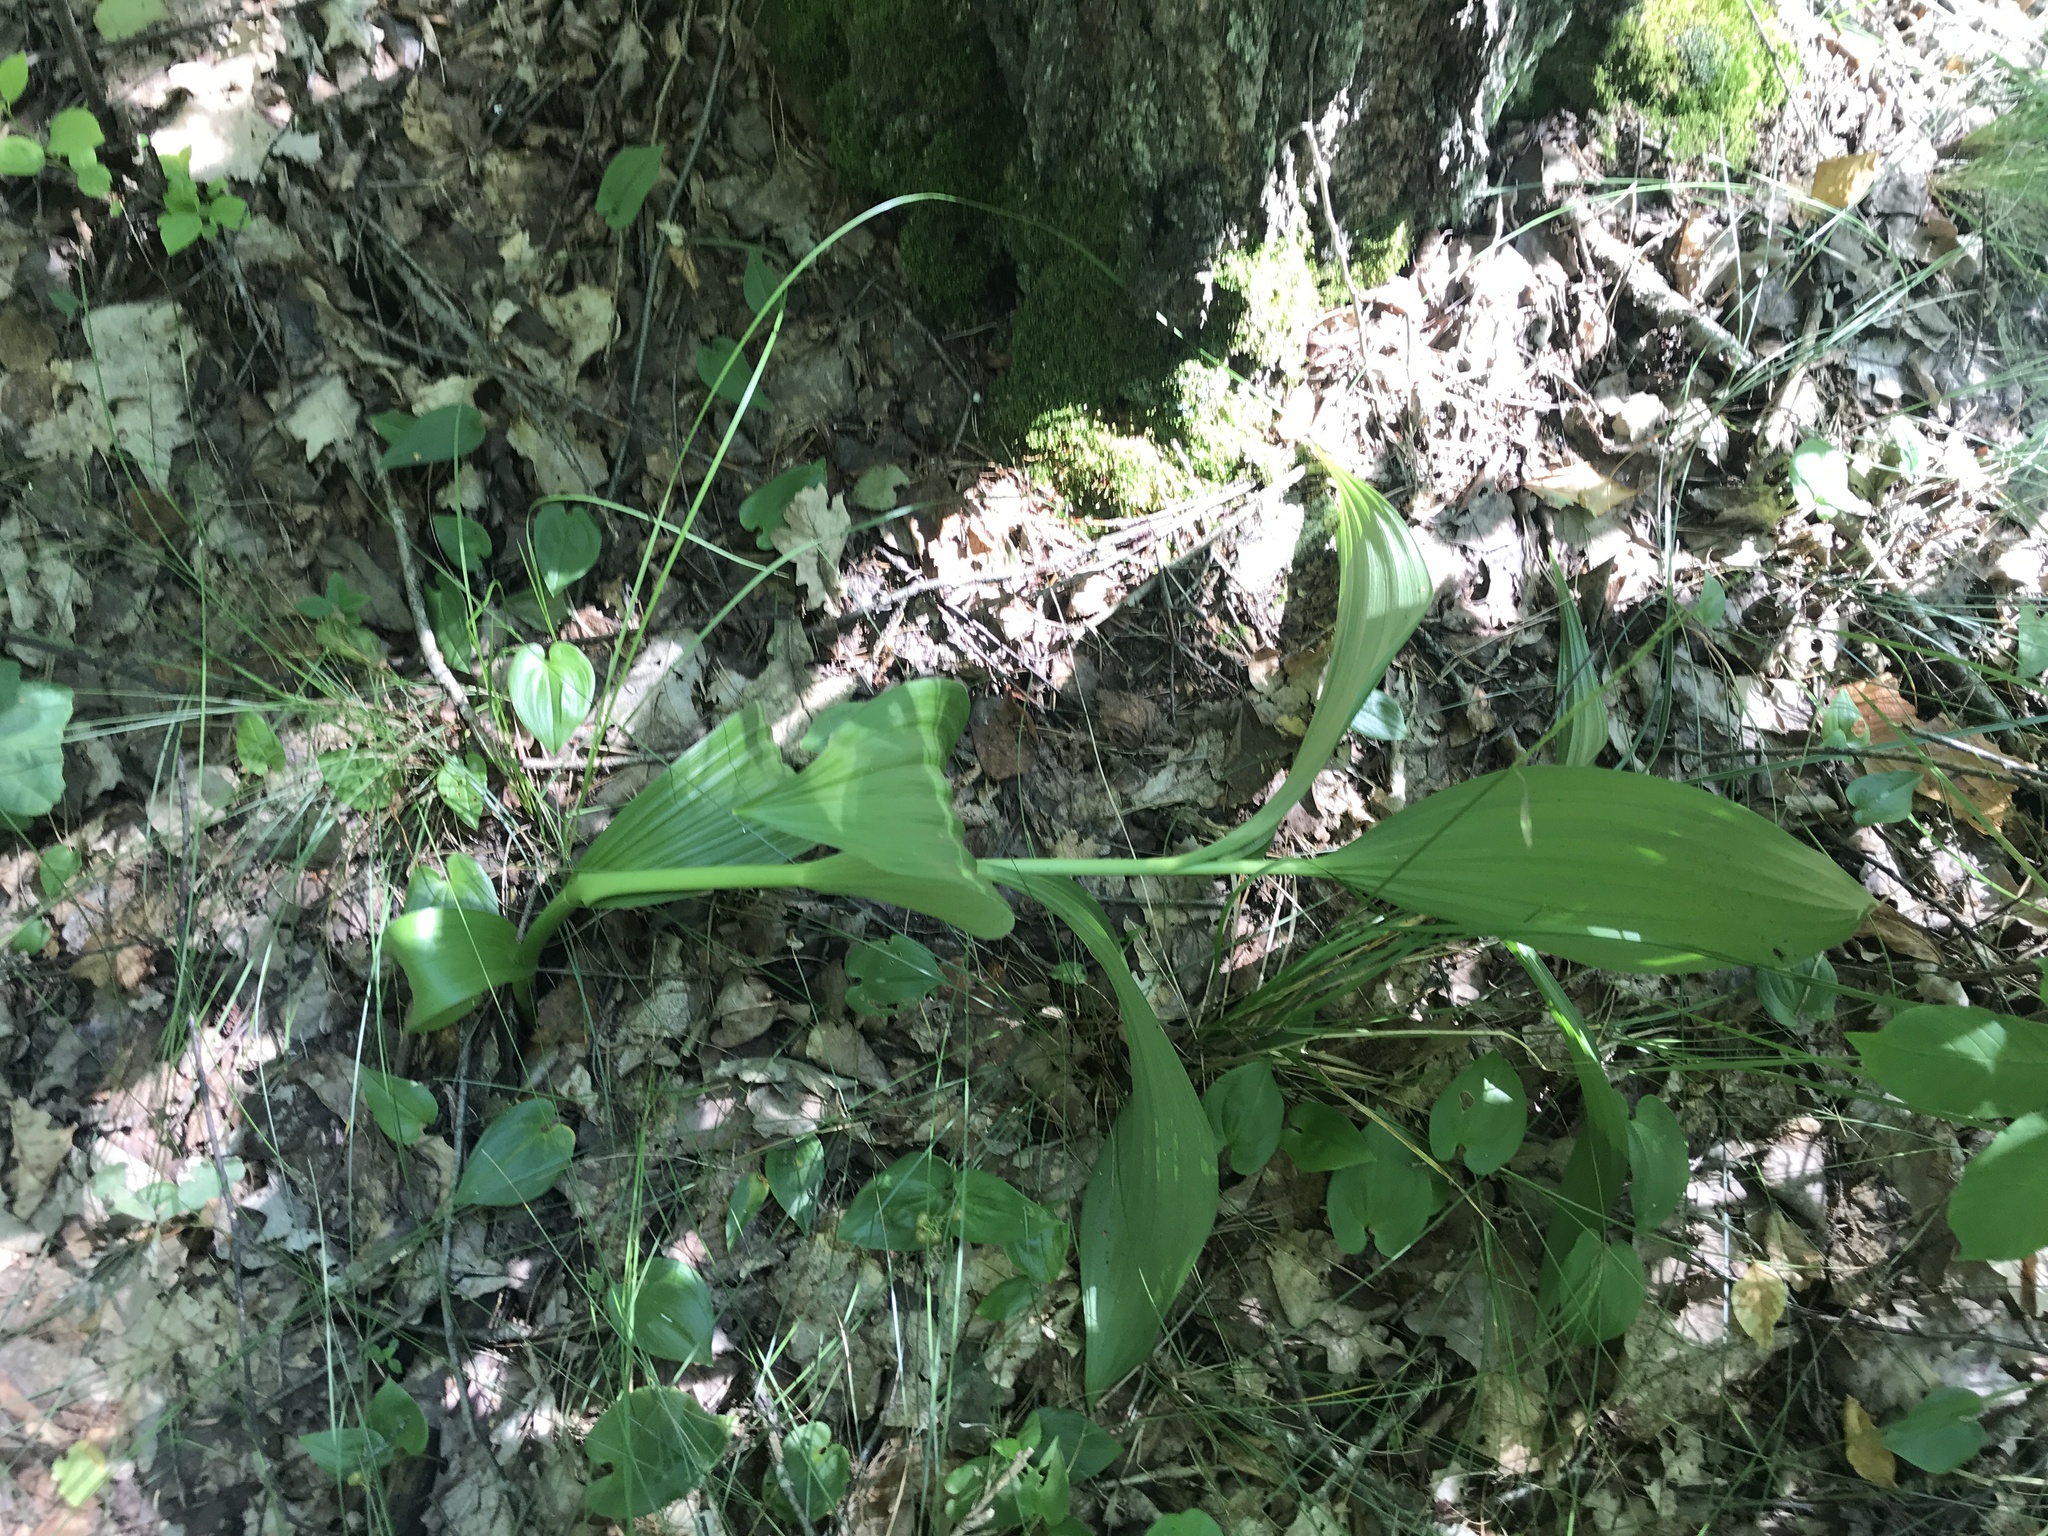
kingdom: Plantae
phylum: Tracheophyta
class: Liliopsida
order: Liliales
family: Melanthiaceae
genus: Veratrum
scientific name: Veratrum lobelianum
